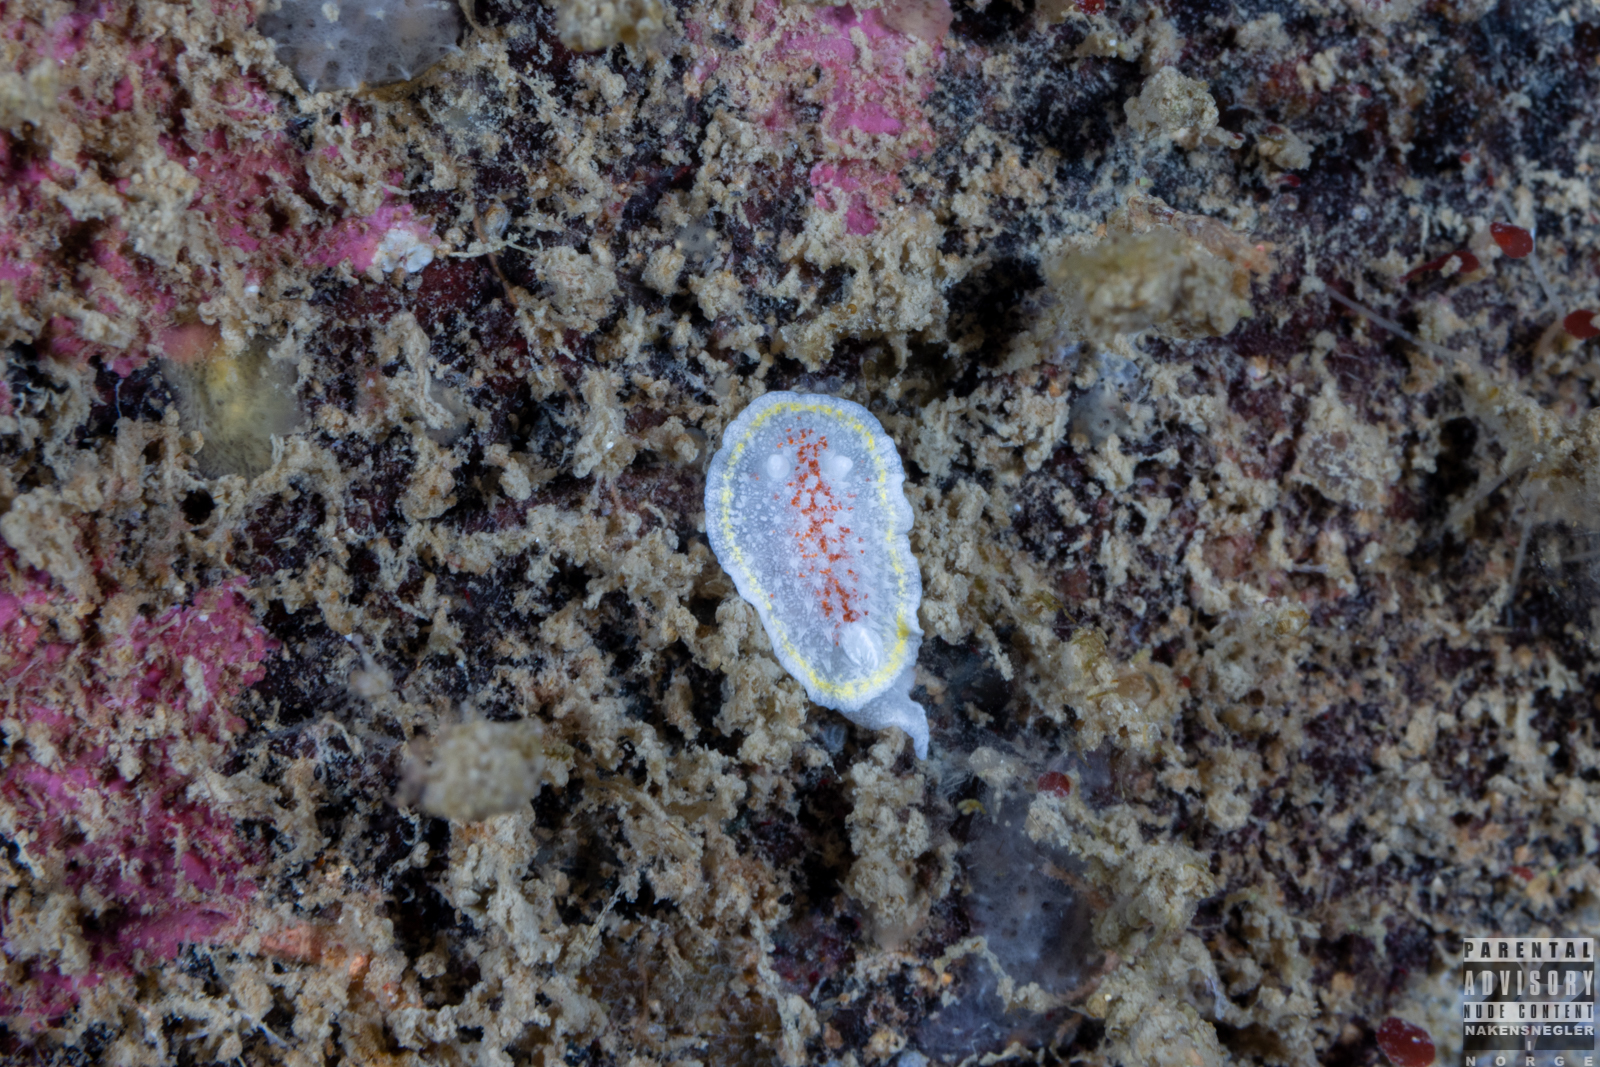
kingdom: Animalia
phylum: Mollusca
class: Gastropoda
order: Nudibranchia
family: Calycidorididae
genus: Diaphorodoris
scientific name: Diaphorodoris luteocincta
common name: Fried egg nudibranch
